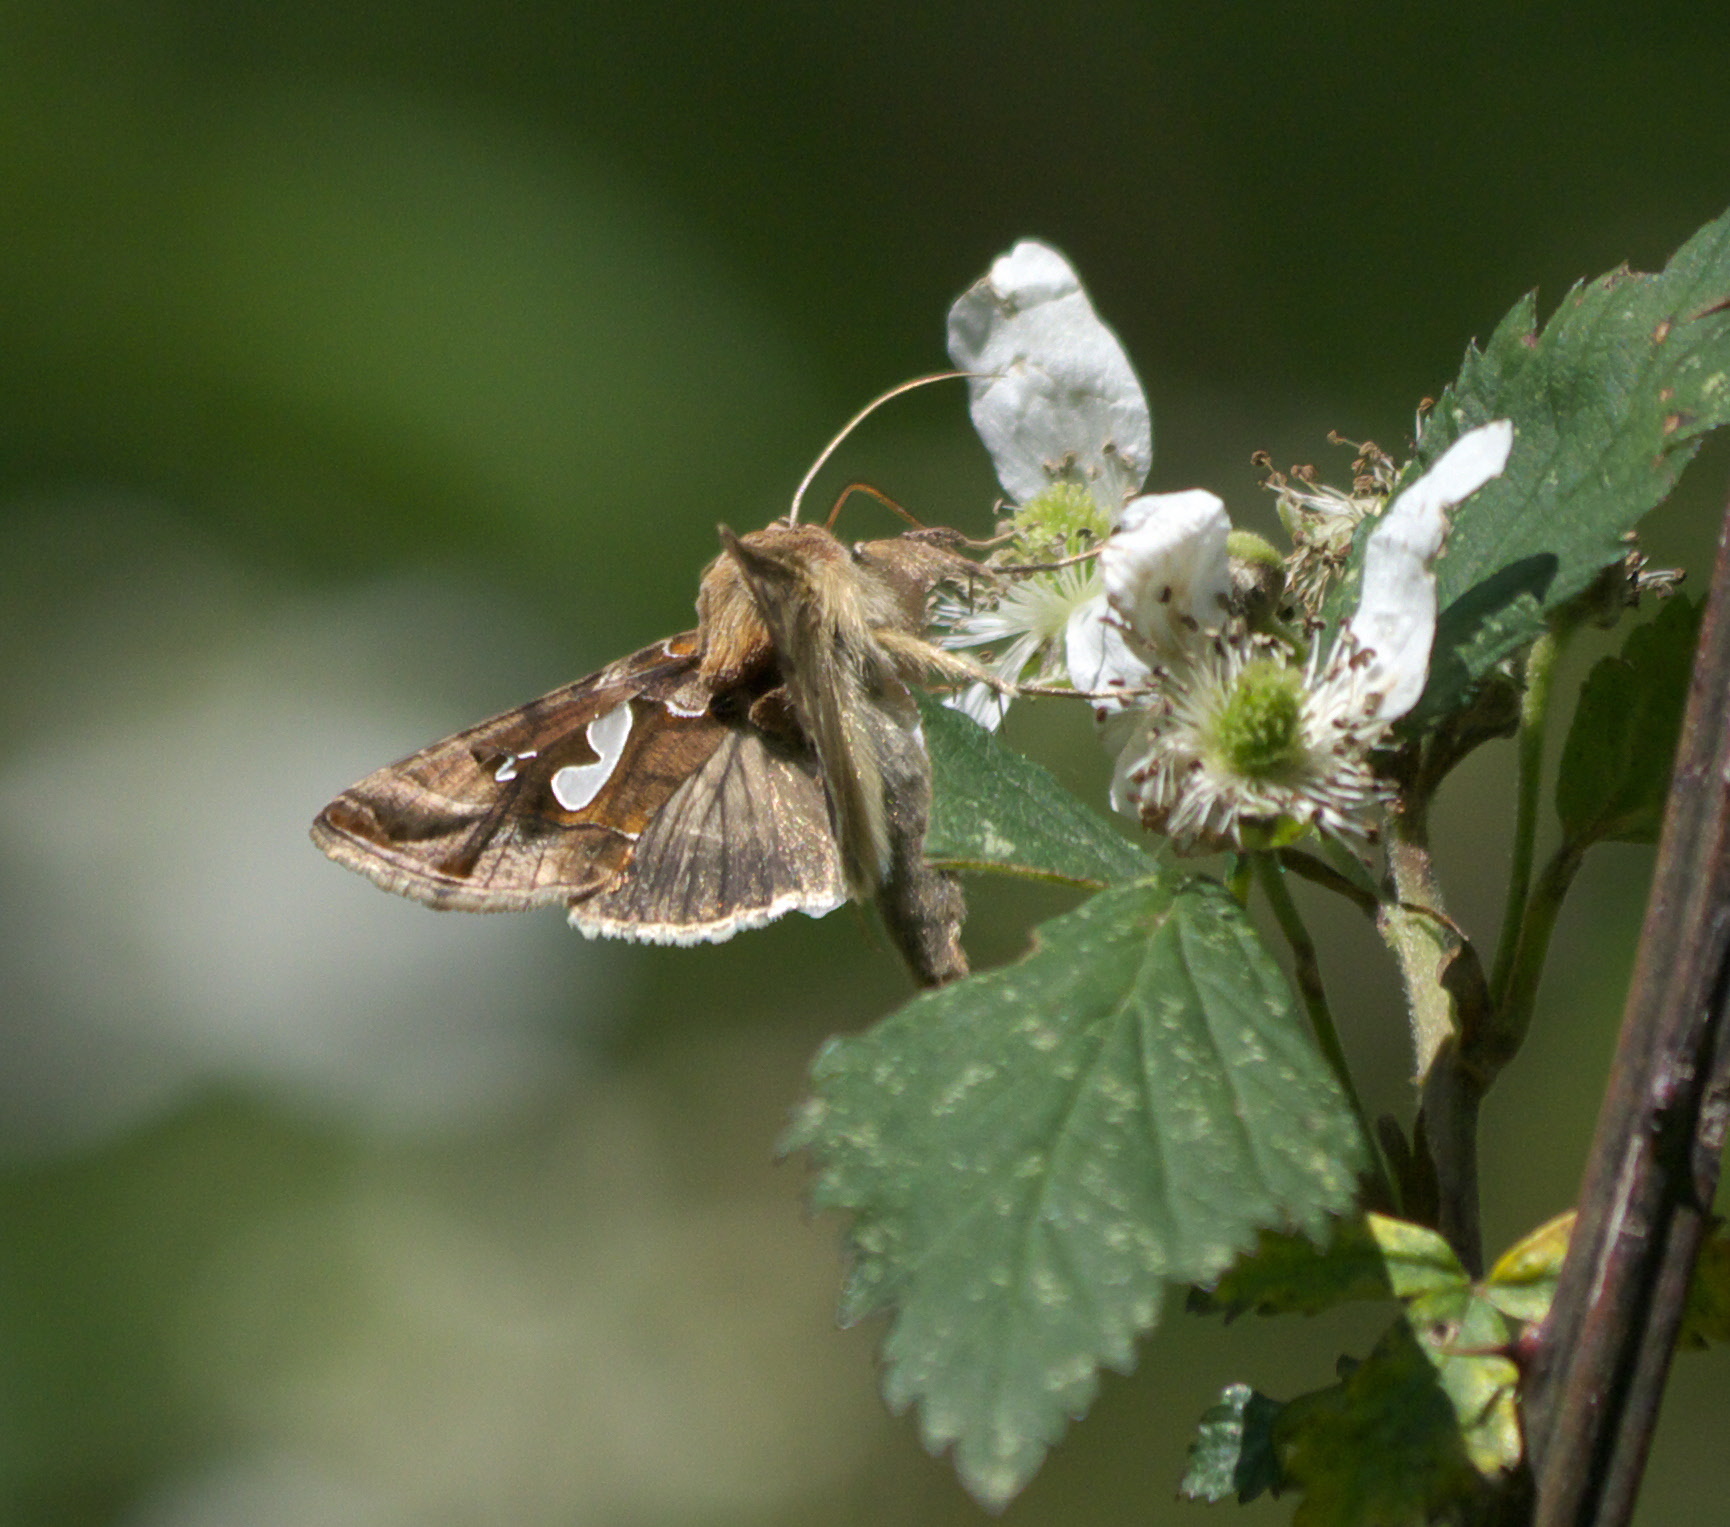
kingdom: Animalia
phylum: Arthropoda
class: Insecta
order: Lepidoptera
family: Noctuidae
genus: Megalographa
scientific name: Megalographa biloba
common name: Cutworm
